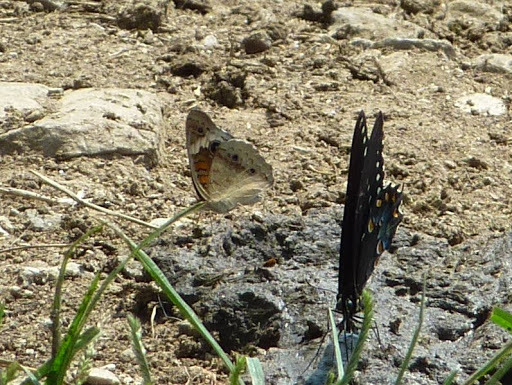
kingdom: Animalia
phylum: Arthropoda
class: Insecta
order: Lepidoptera
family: Nymphalidae
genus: Junonia
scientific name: Junonia coenia
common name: Common buckeye
